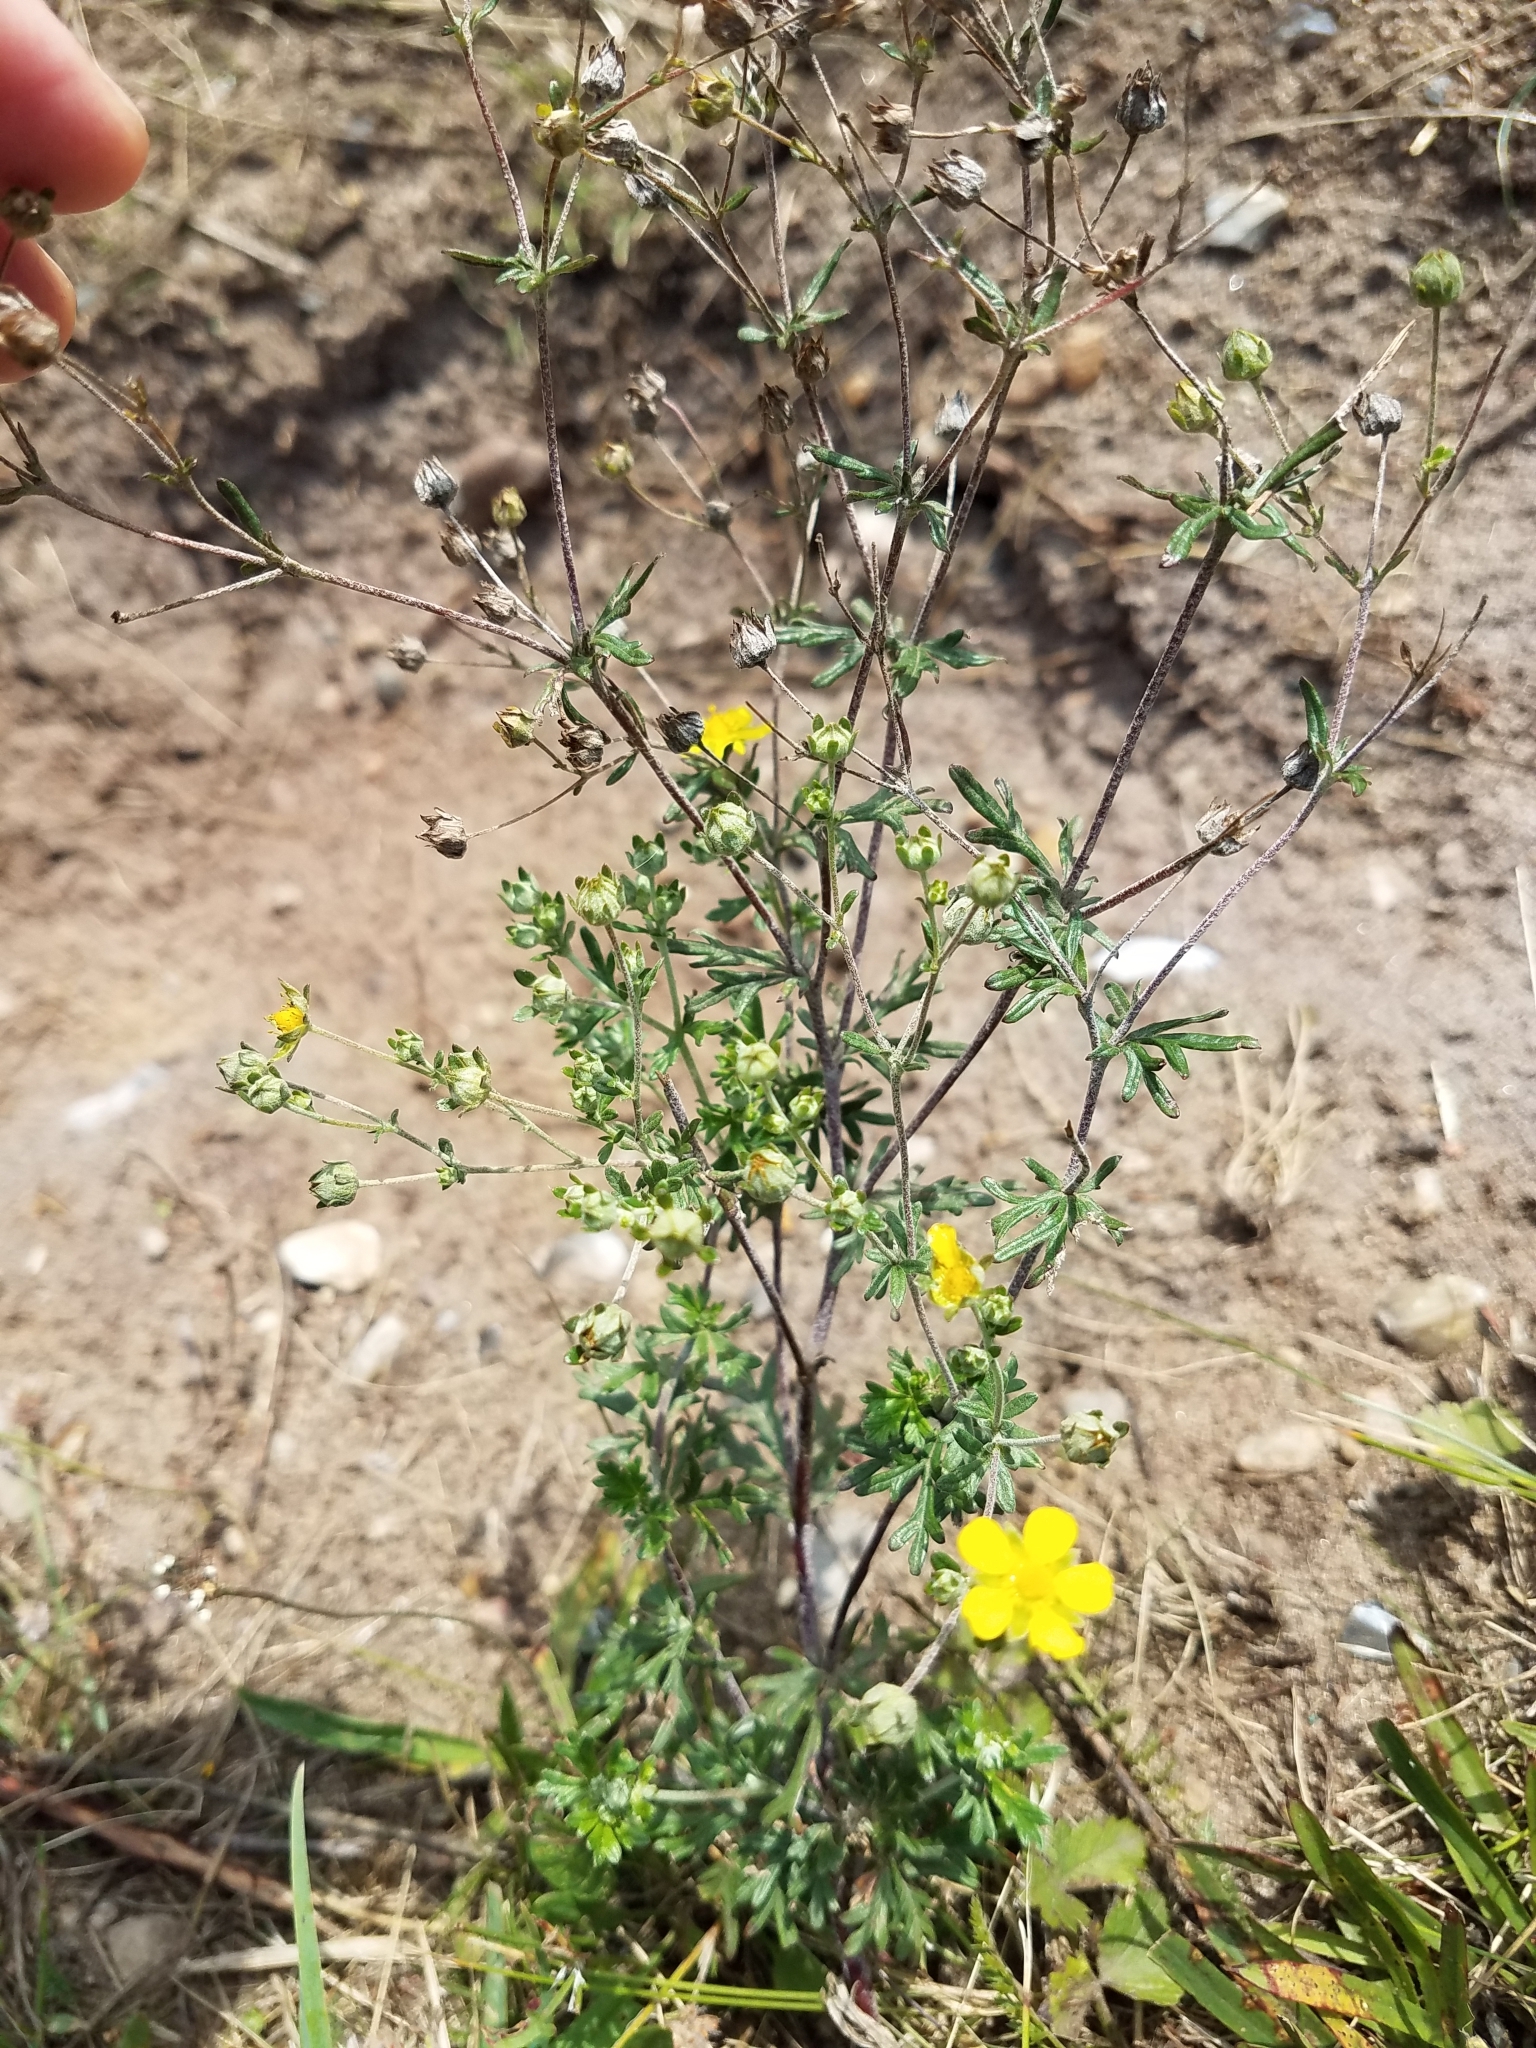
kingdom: Plantae
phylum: Tracheophyta
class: Magnoliopsida
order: Rosales
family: Rosaceae
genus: Potentilla
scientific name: Potentilla argentea
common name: Hoary cinquefoil
